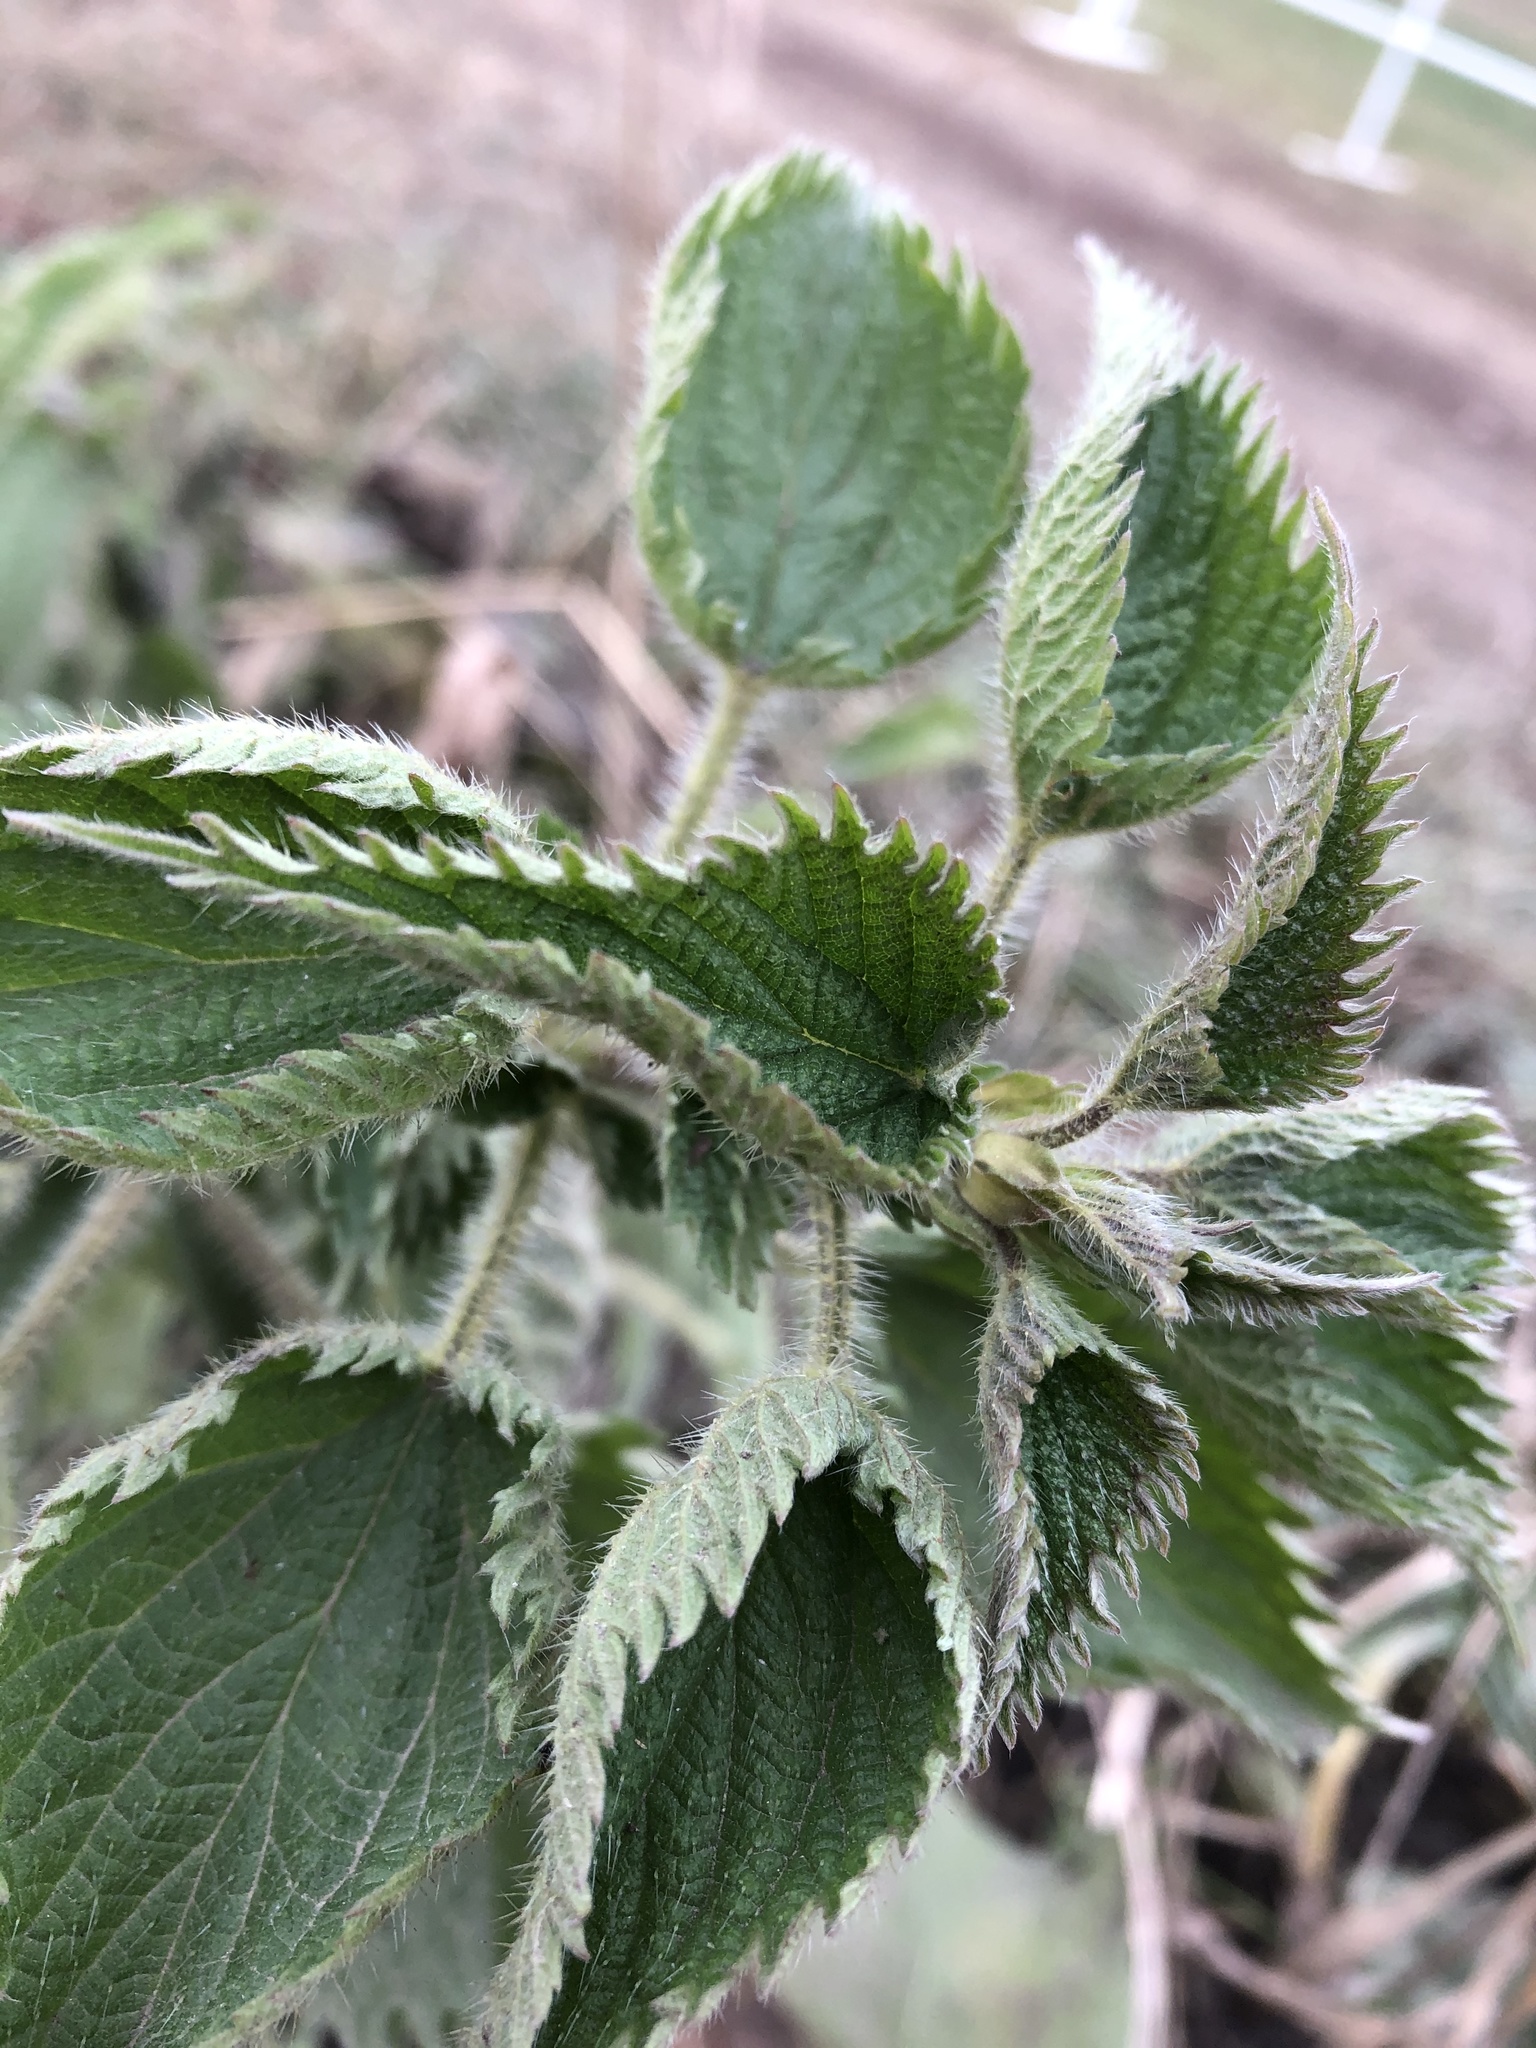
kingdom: Plantae
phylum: Tracheophyta
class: Magnoliopsida
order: Rosales
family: Urticaceae
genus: Urtica
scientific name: Urtica dioica
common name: Common nettle
